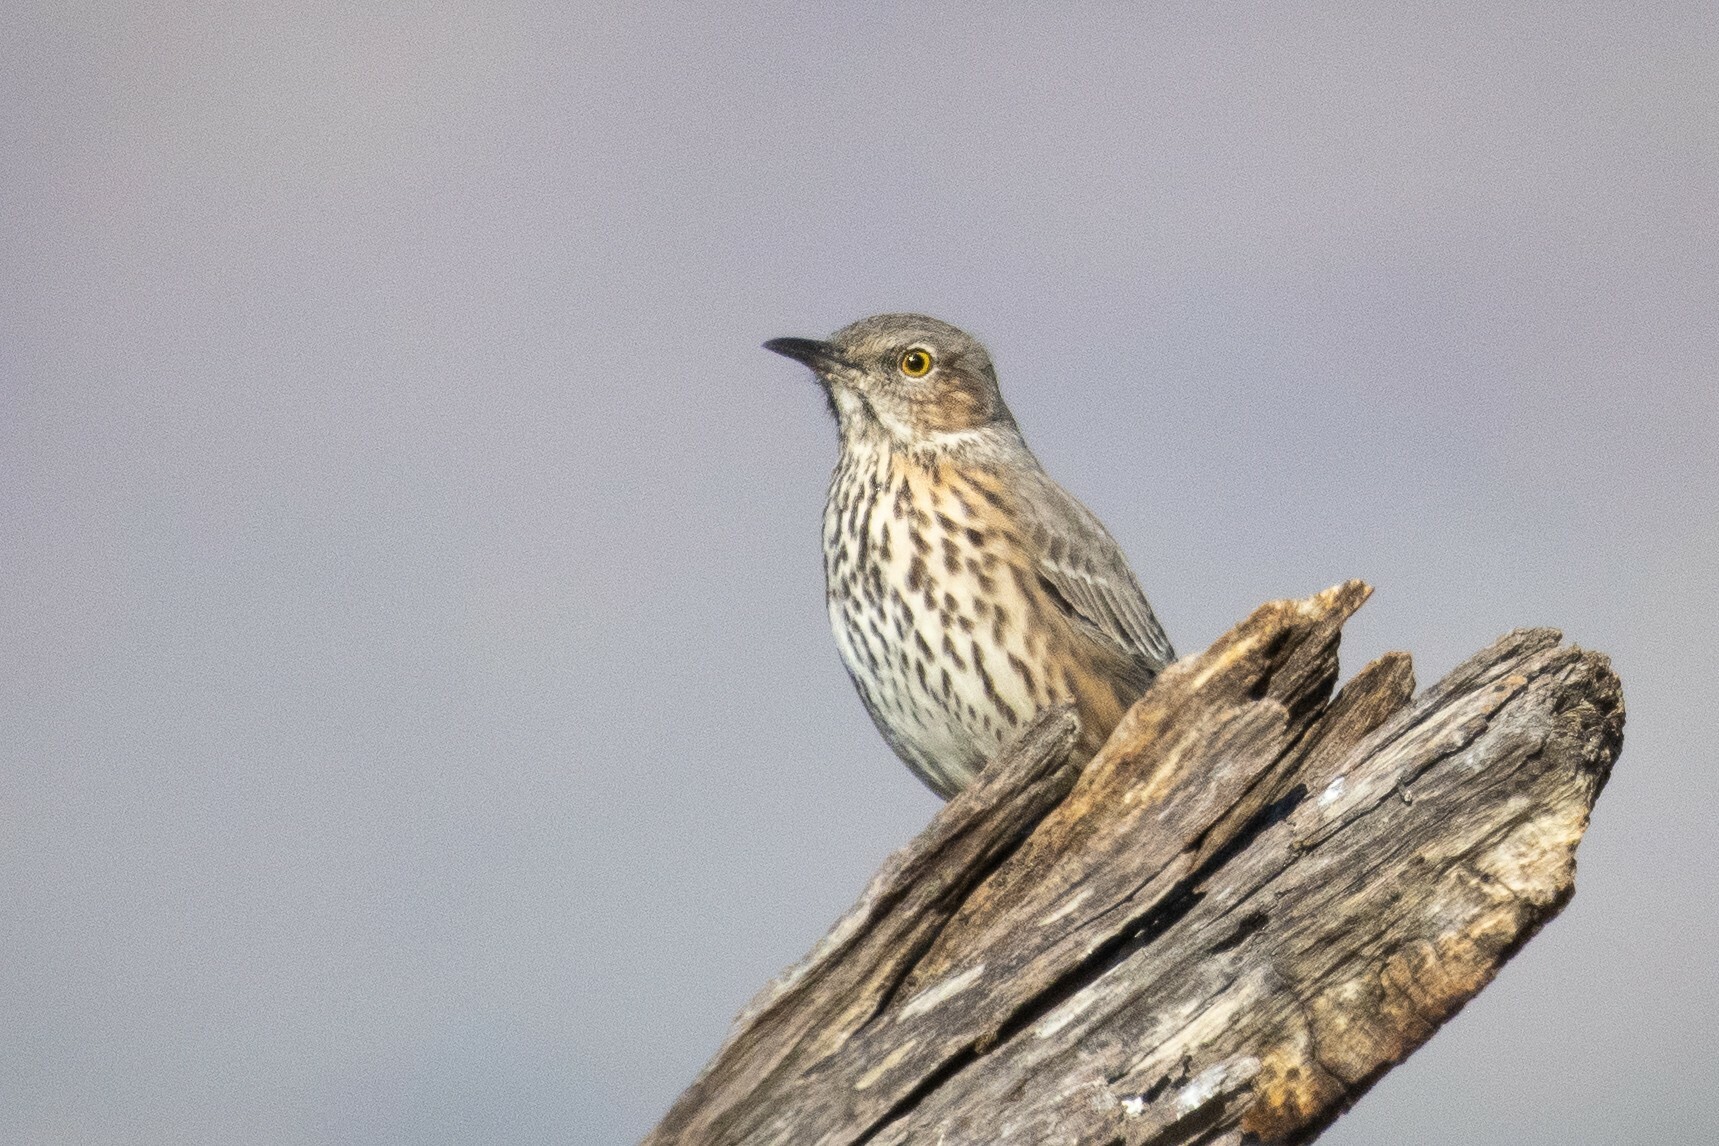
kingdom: Animalia
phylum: Chordata
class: Aves
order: Passeriformes
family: Mimidae
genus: Oreoscoptes
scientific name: Oreoscoptes montanus
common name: Sage thrasher
